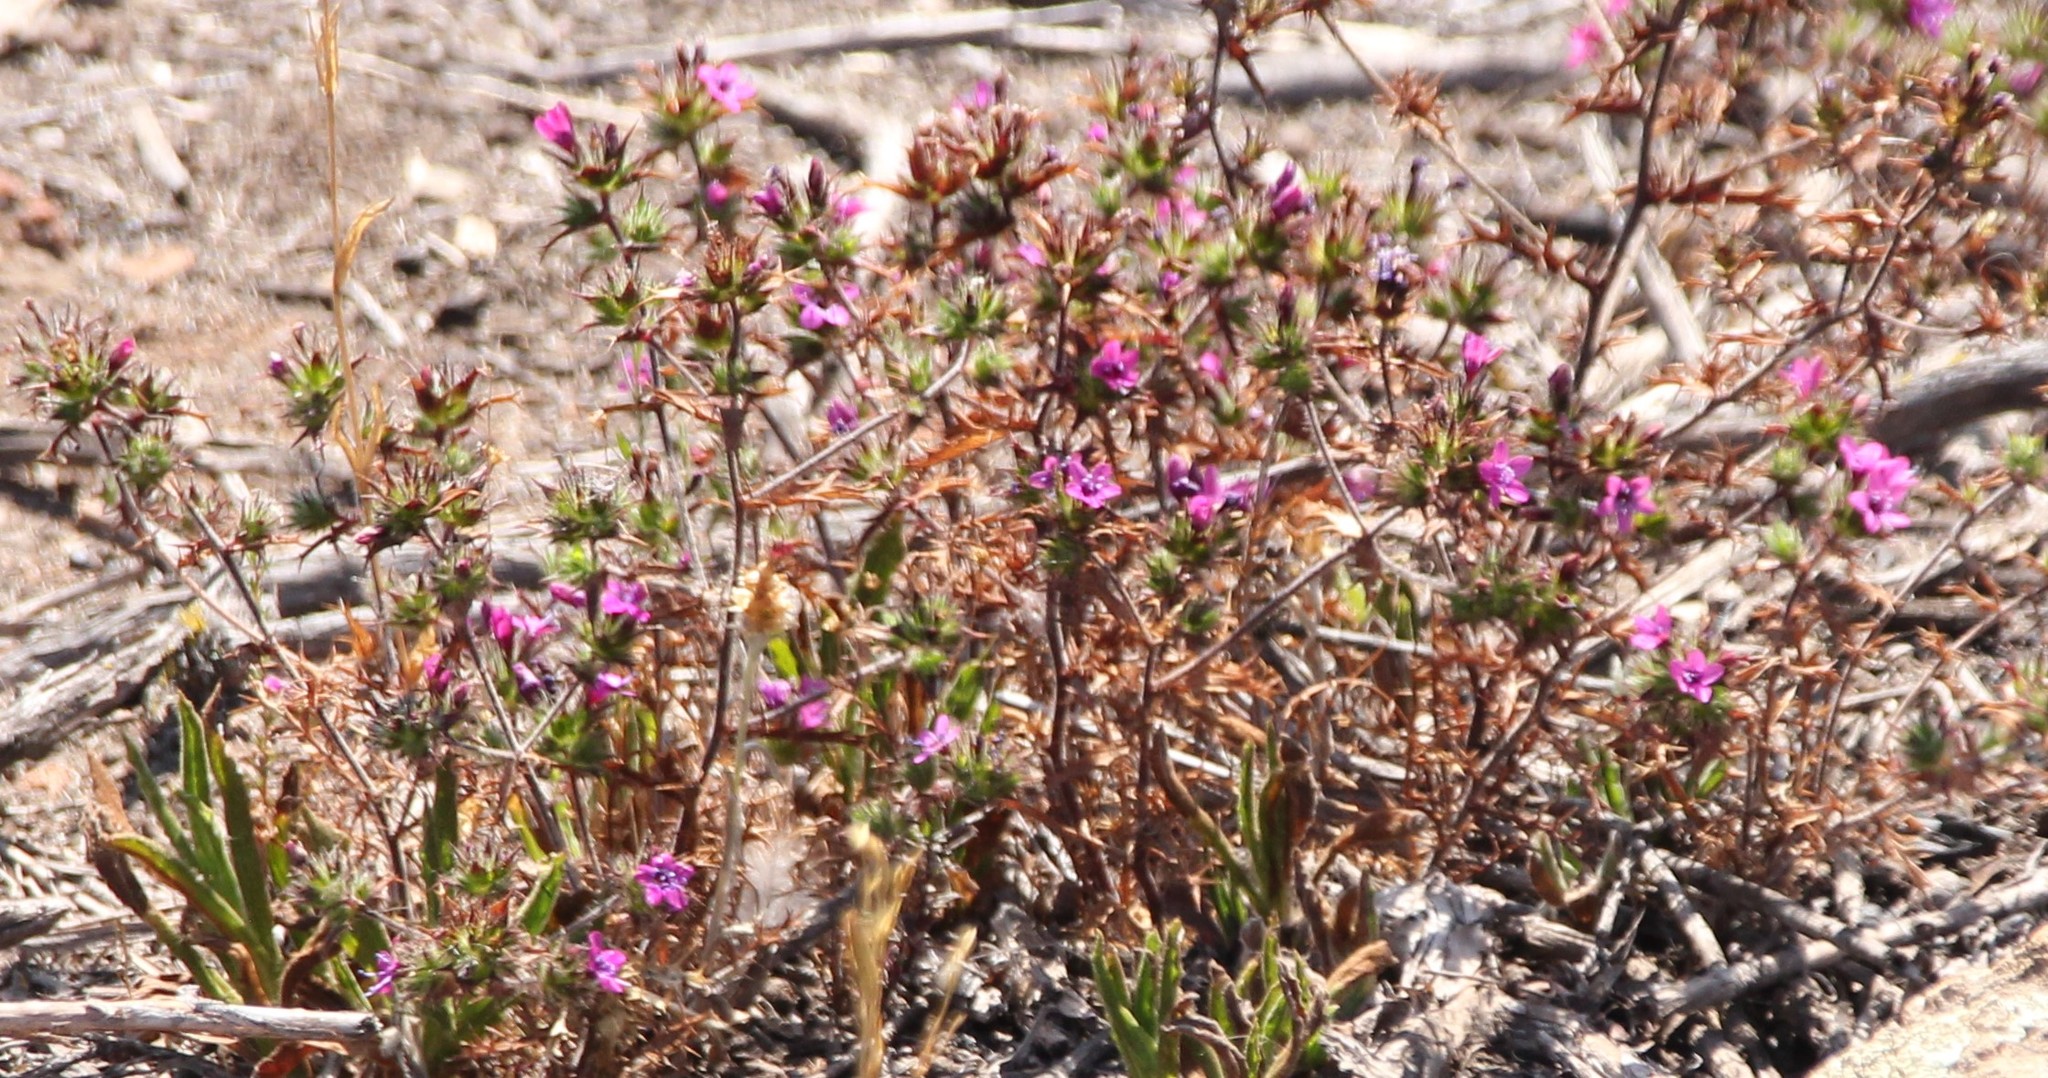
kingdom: Plantae
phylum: Tracheophyta
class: Magnoliopsida
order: Ericales
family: Polemoniaceae
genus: Navarretia
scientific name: Navarretia hamata
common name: Hooked navarretia
